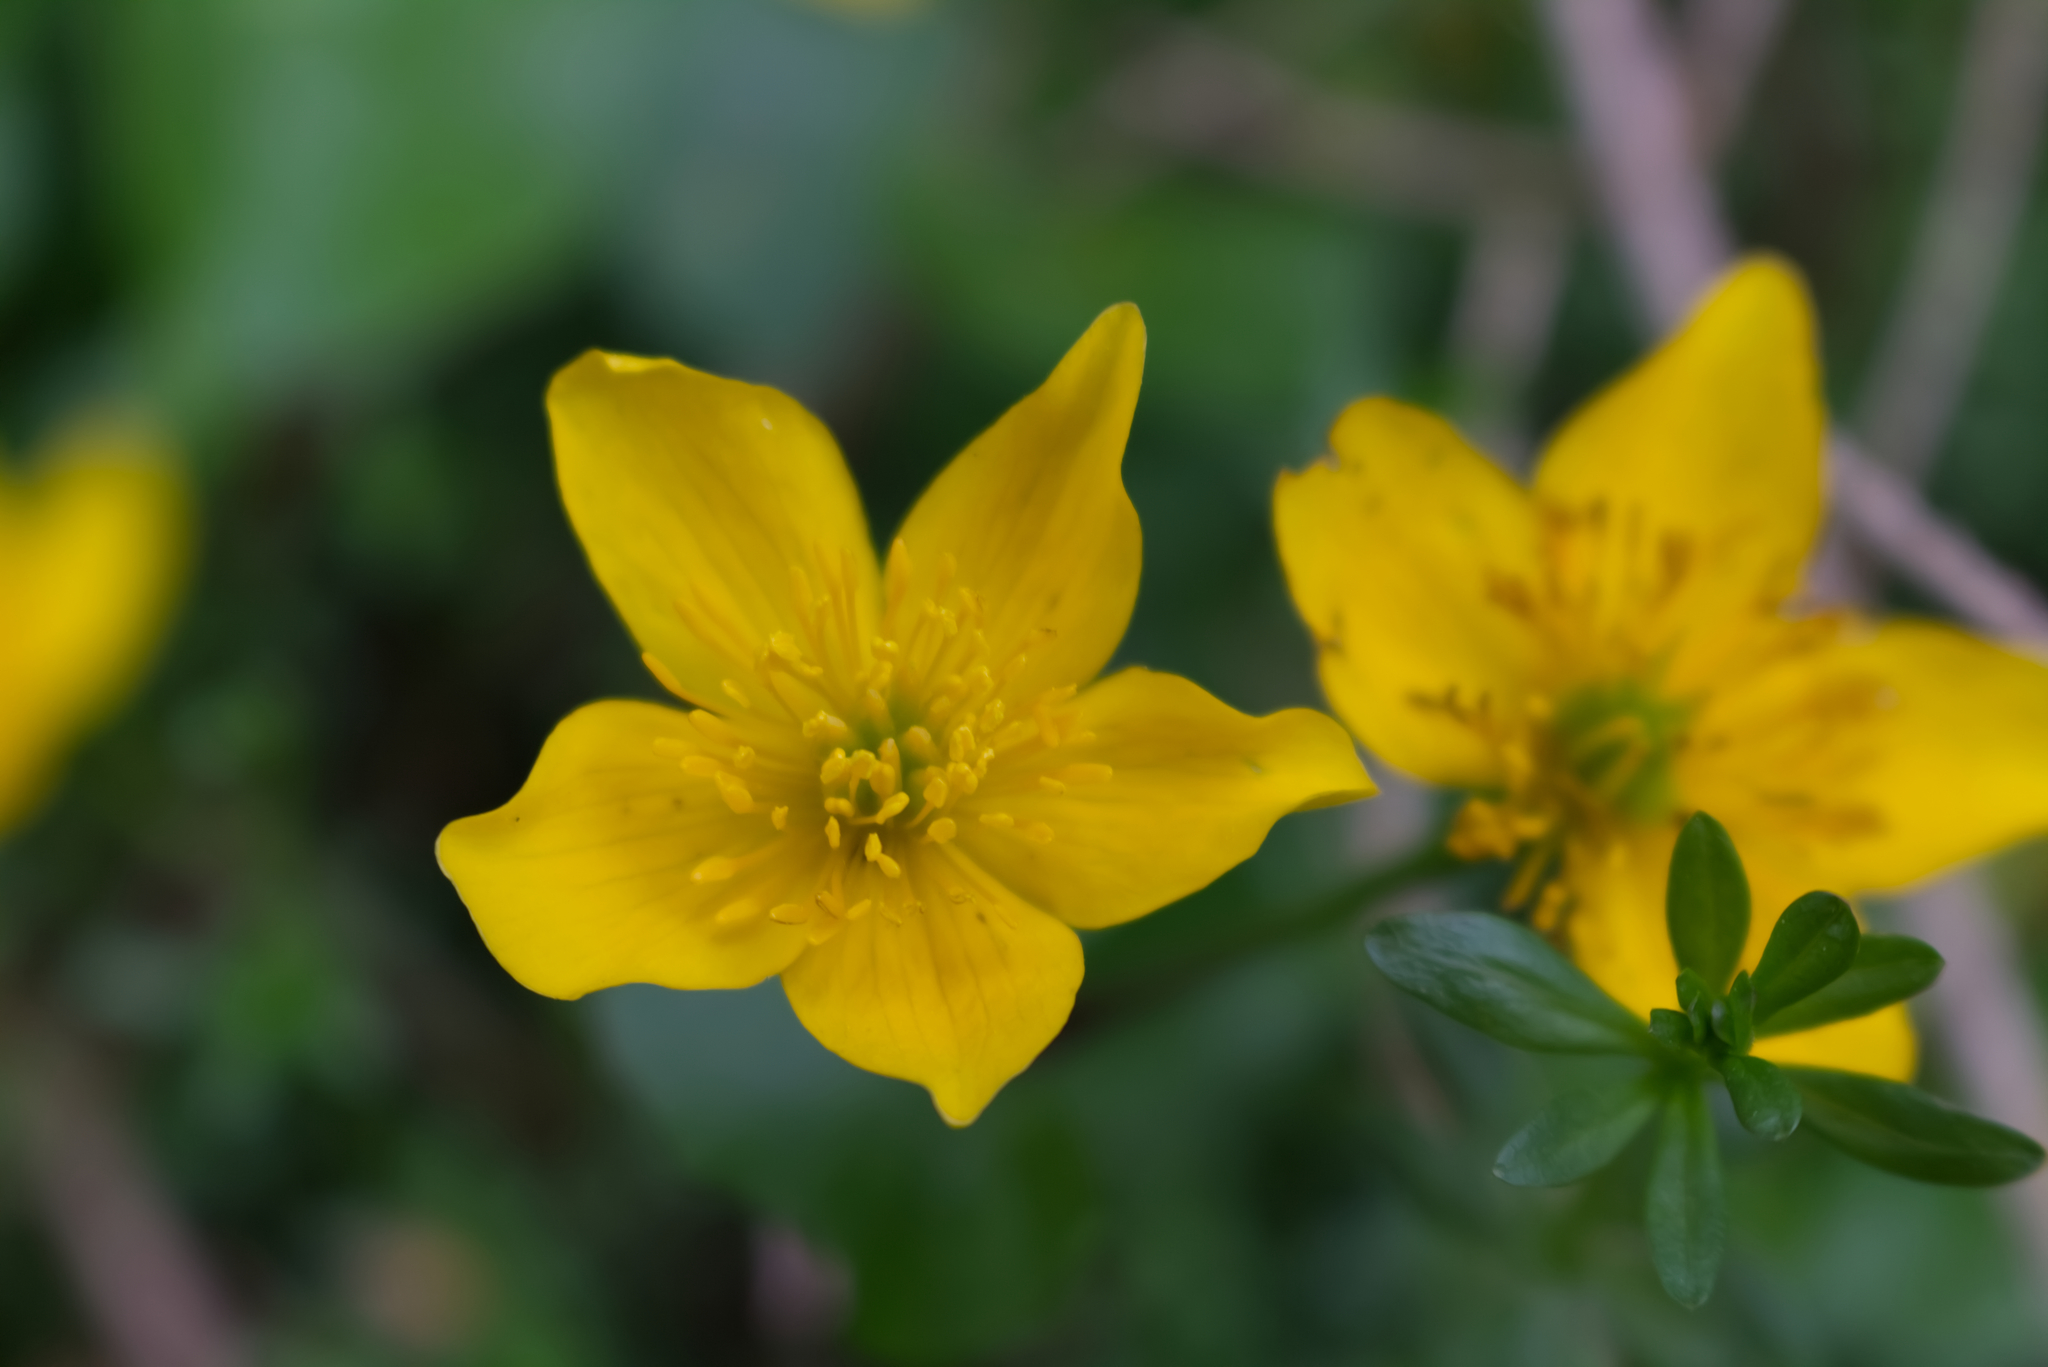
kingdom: Plantae
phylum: Tracheophyta
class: Magnoliopsida
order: Ranunculales
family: Ranunculaceae
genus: Caltha
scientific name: Caltha palustris
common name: Marsh marigold
